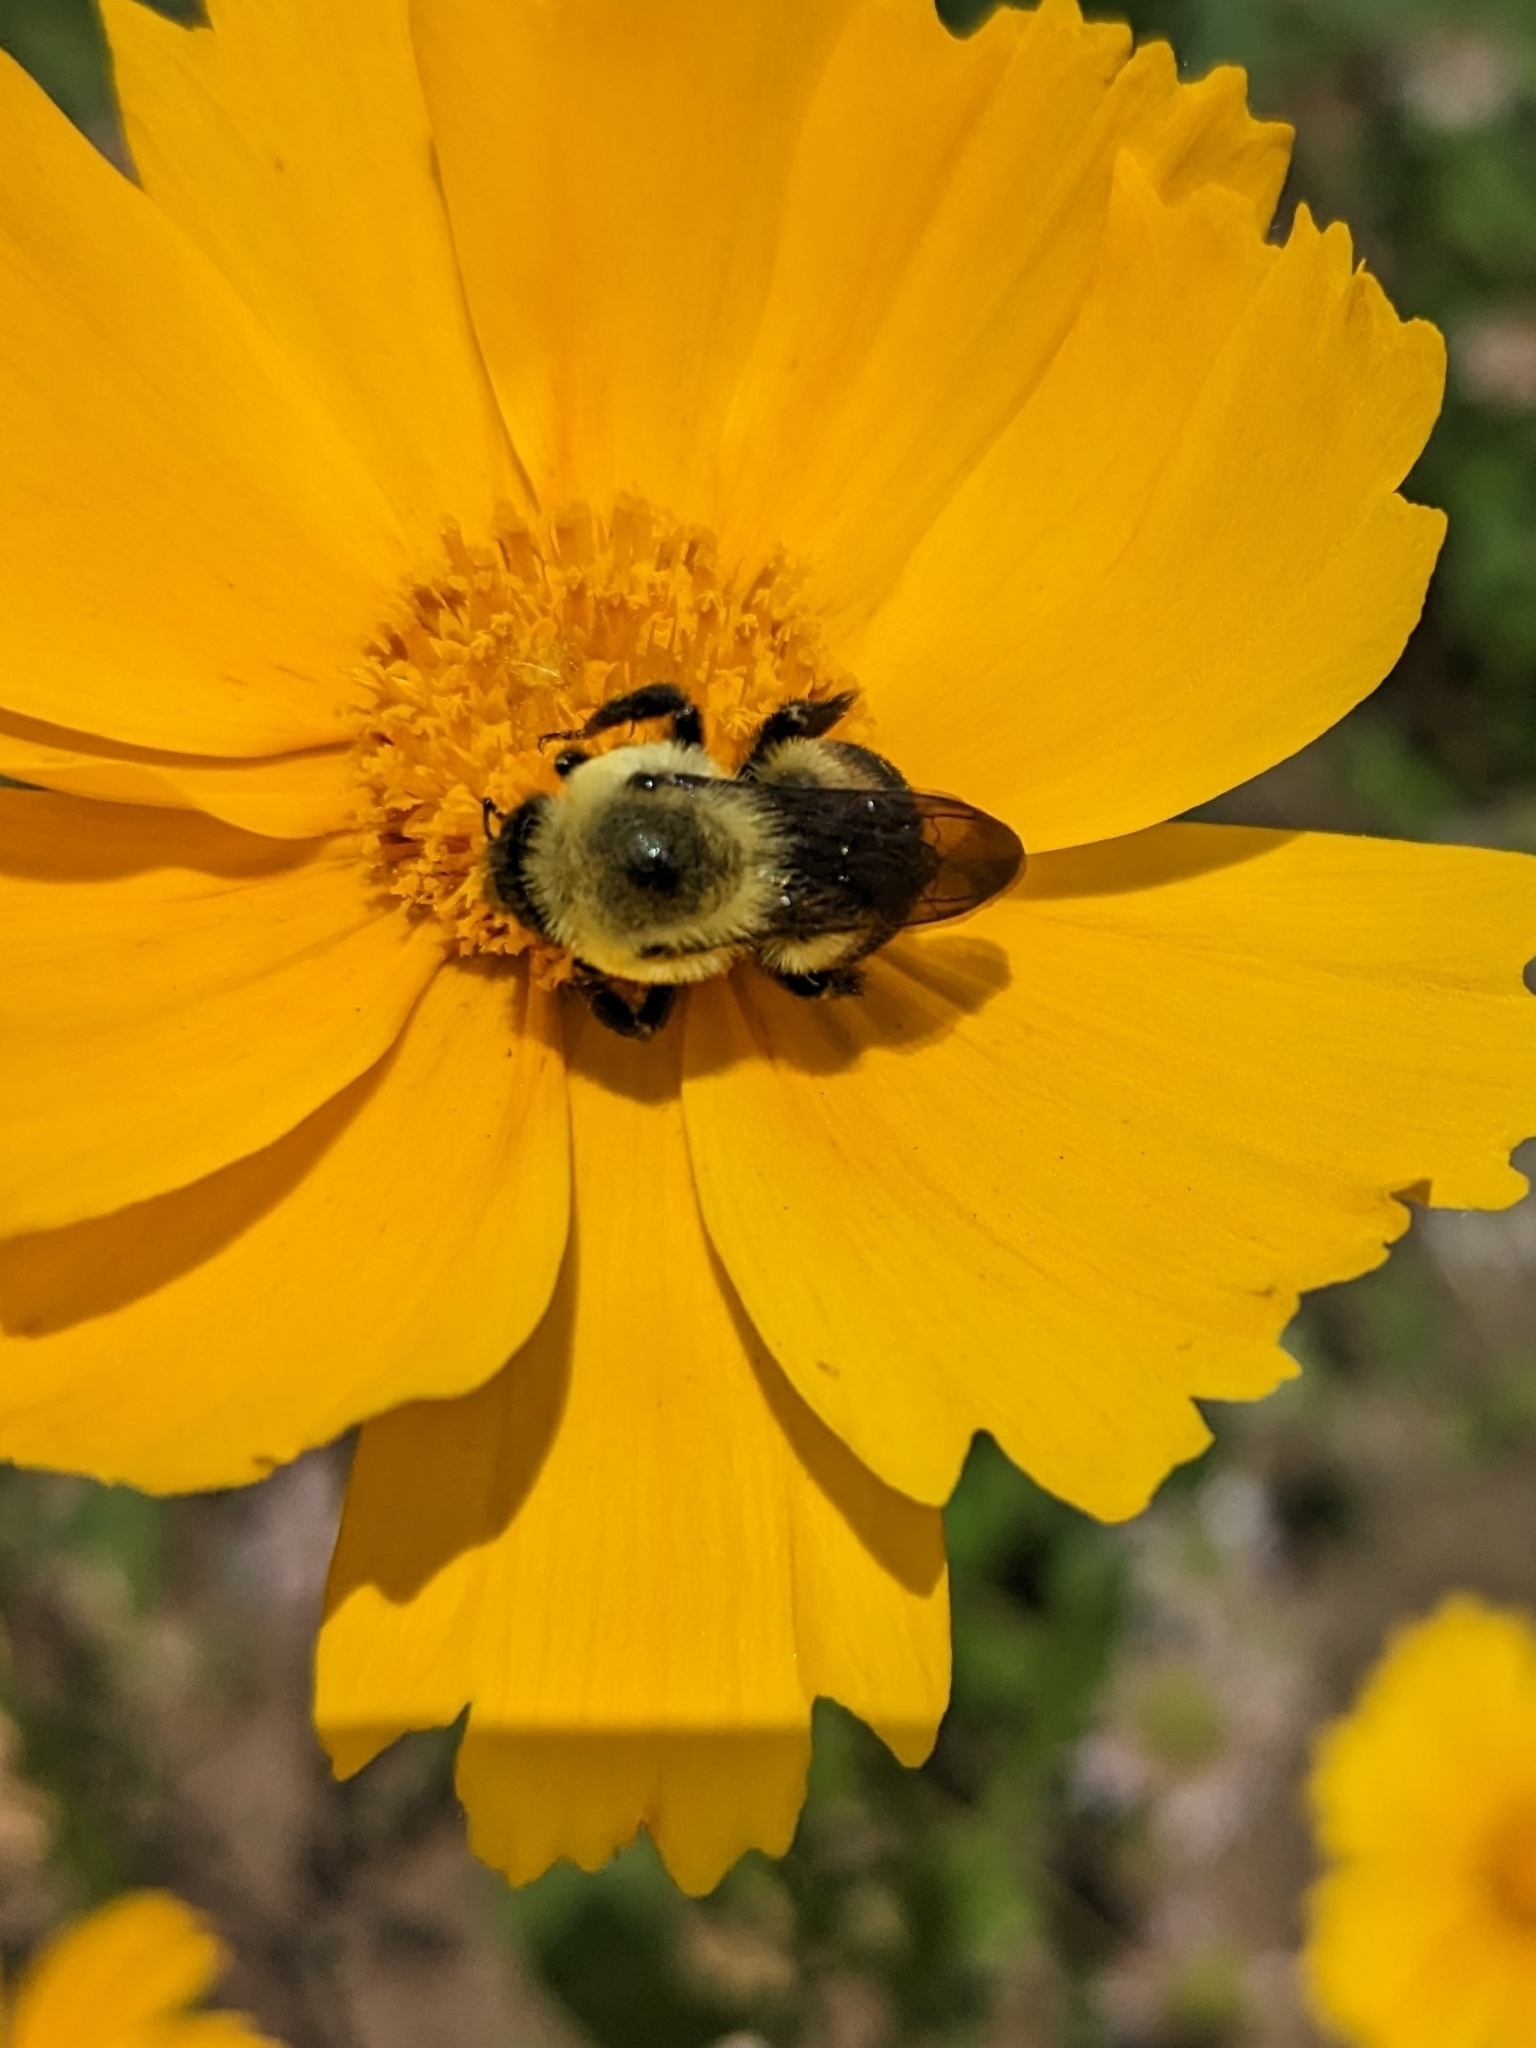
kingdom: Animalia
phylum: Arthropoda
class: Insecta
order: Hymenoptera
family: Apidae
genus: Bombus
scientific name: Bombus griseocollis
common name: Brown-belted bumble bee
